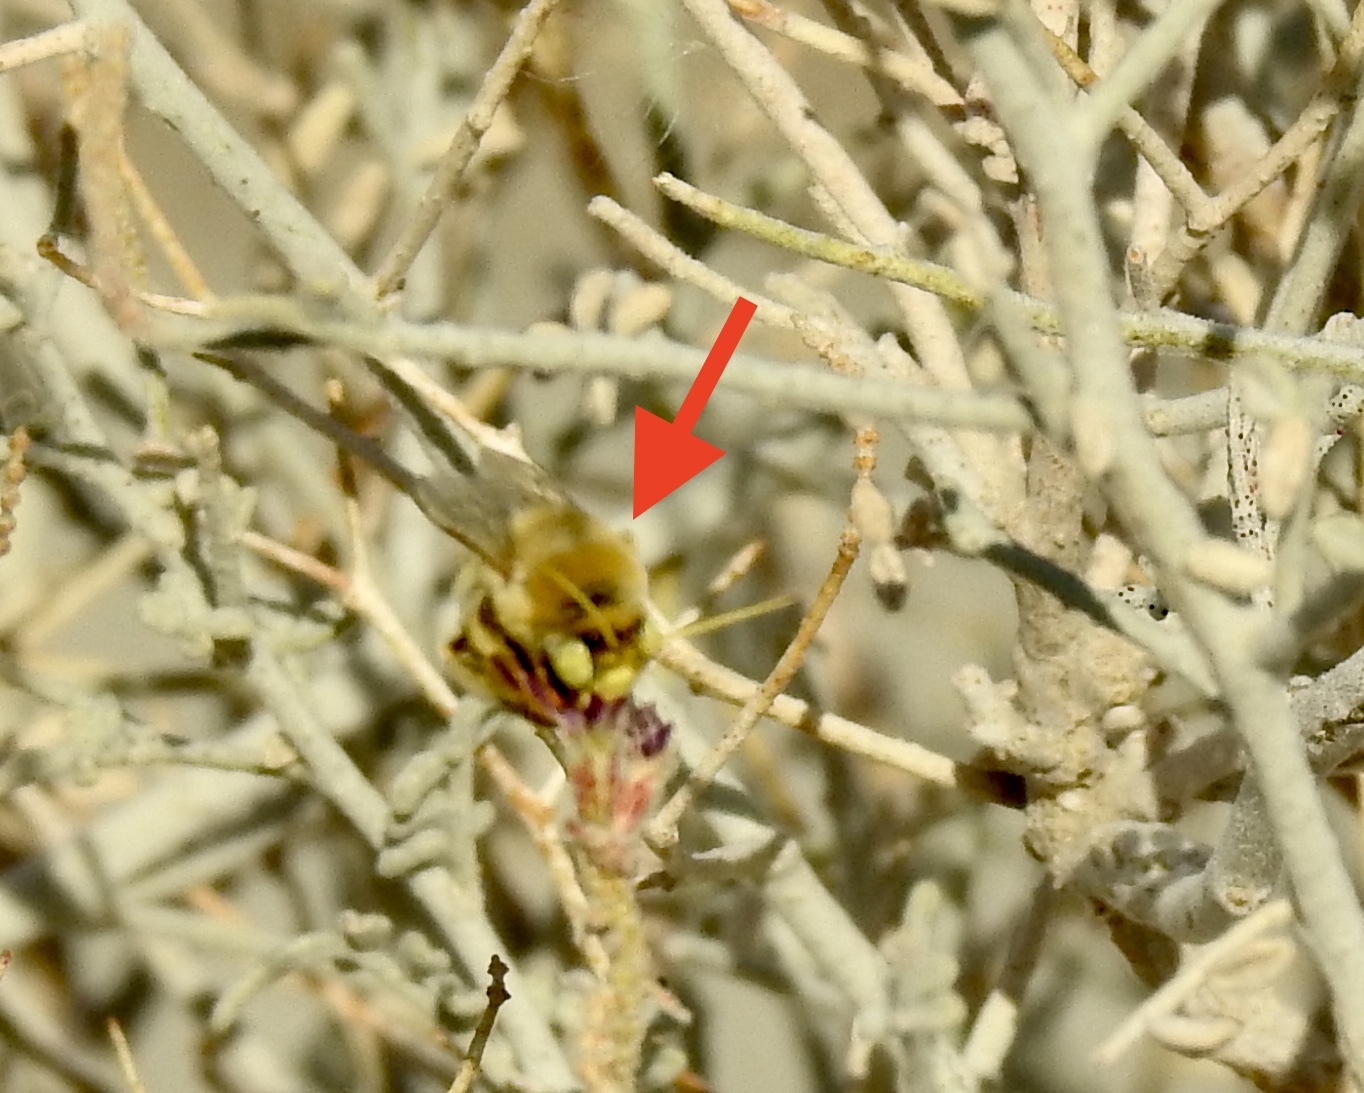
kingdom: Animalia
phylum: Arthropoda
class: Insecta
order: Hymenoptera
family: Apidae
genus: Martinapis
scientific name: Martinapis occidentalis
